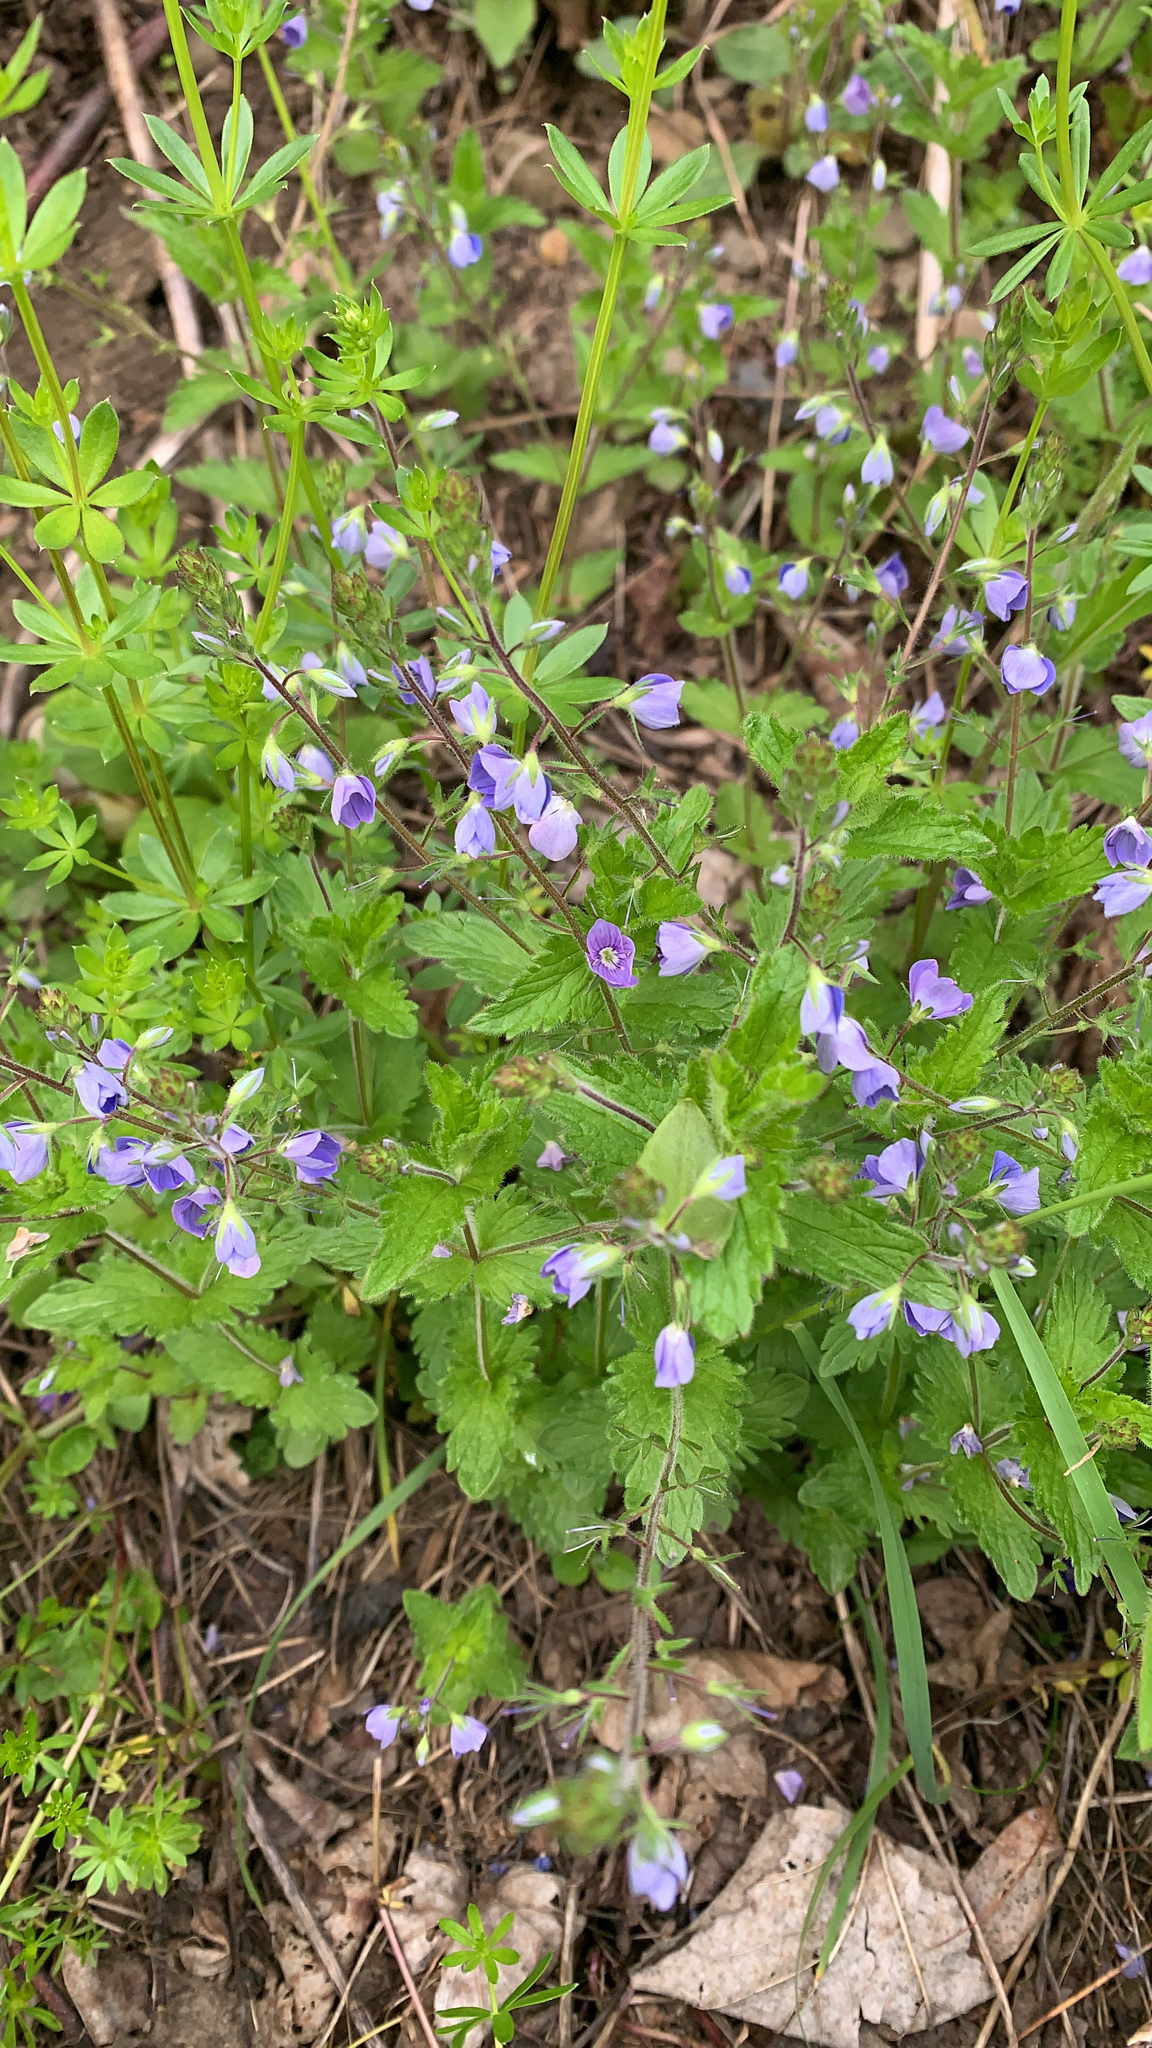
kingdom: Plantae
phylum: Tracheophyta
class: Magnoliopsida
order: Lamiales
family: Plantaginaceae
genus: Veronica
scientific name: Veronica chamaedrys
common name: Germander speedwell
